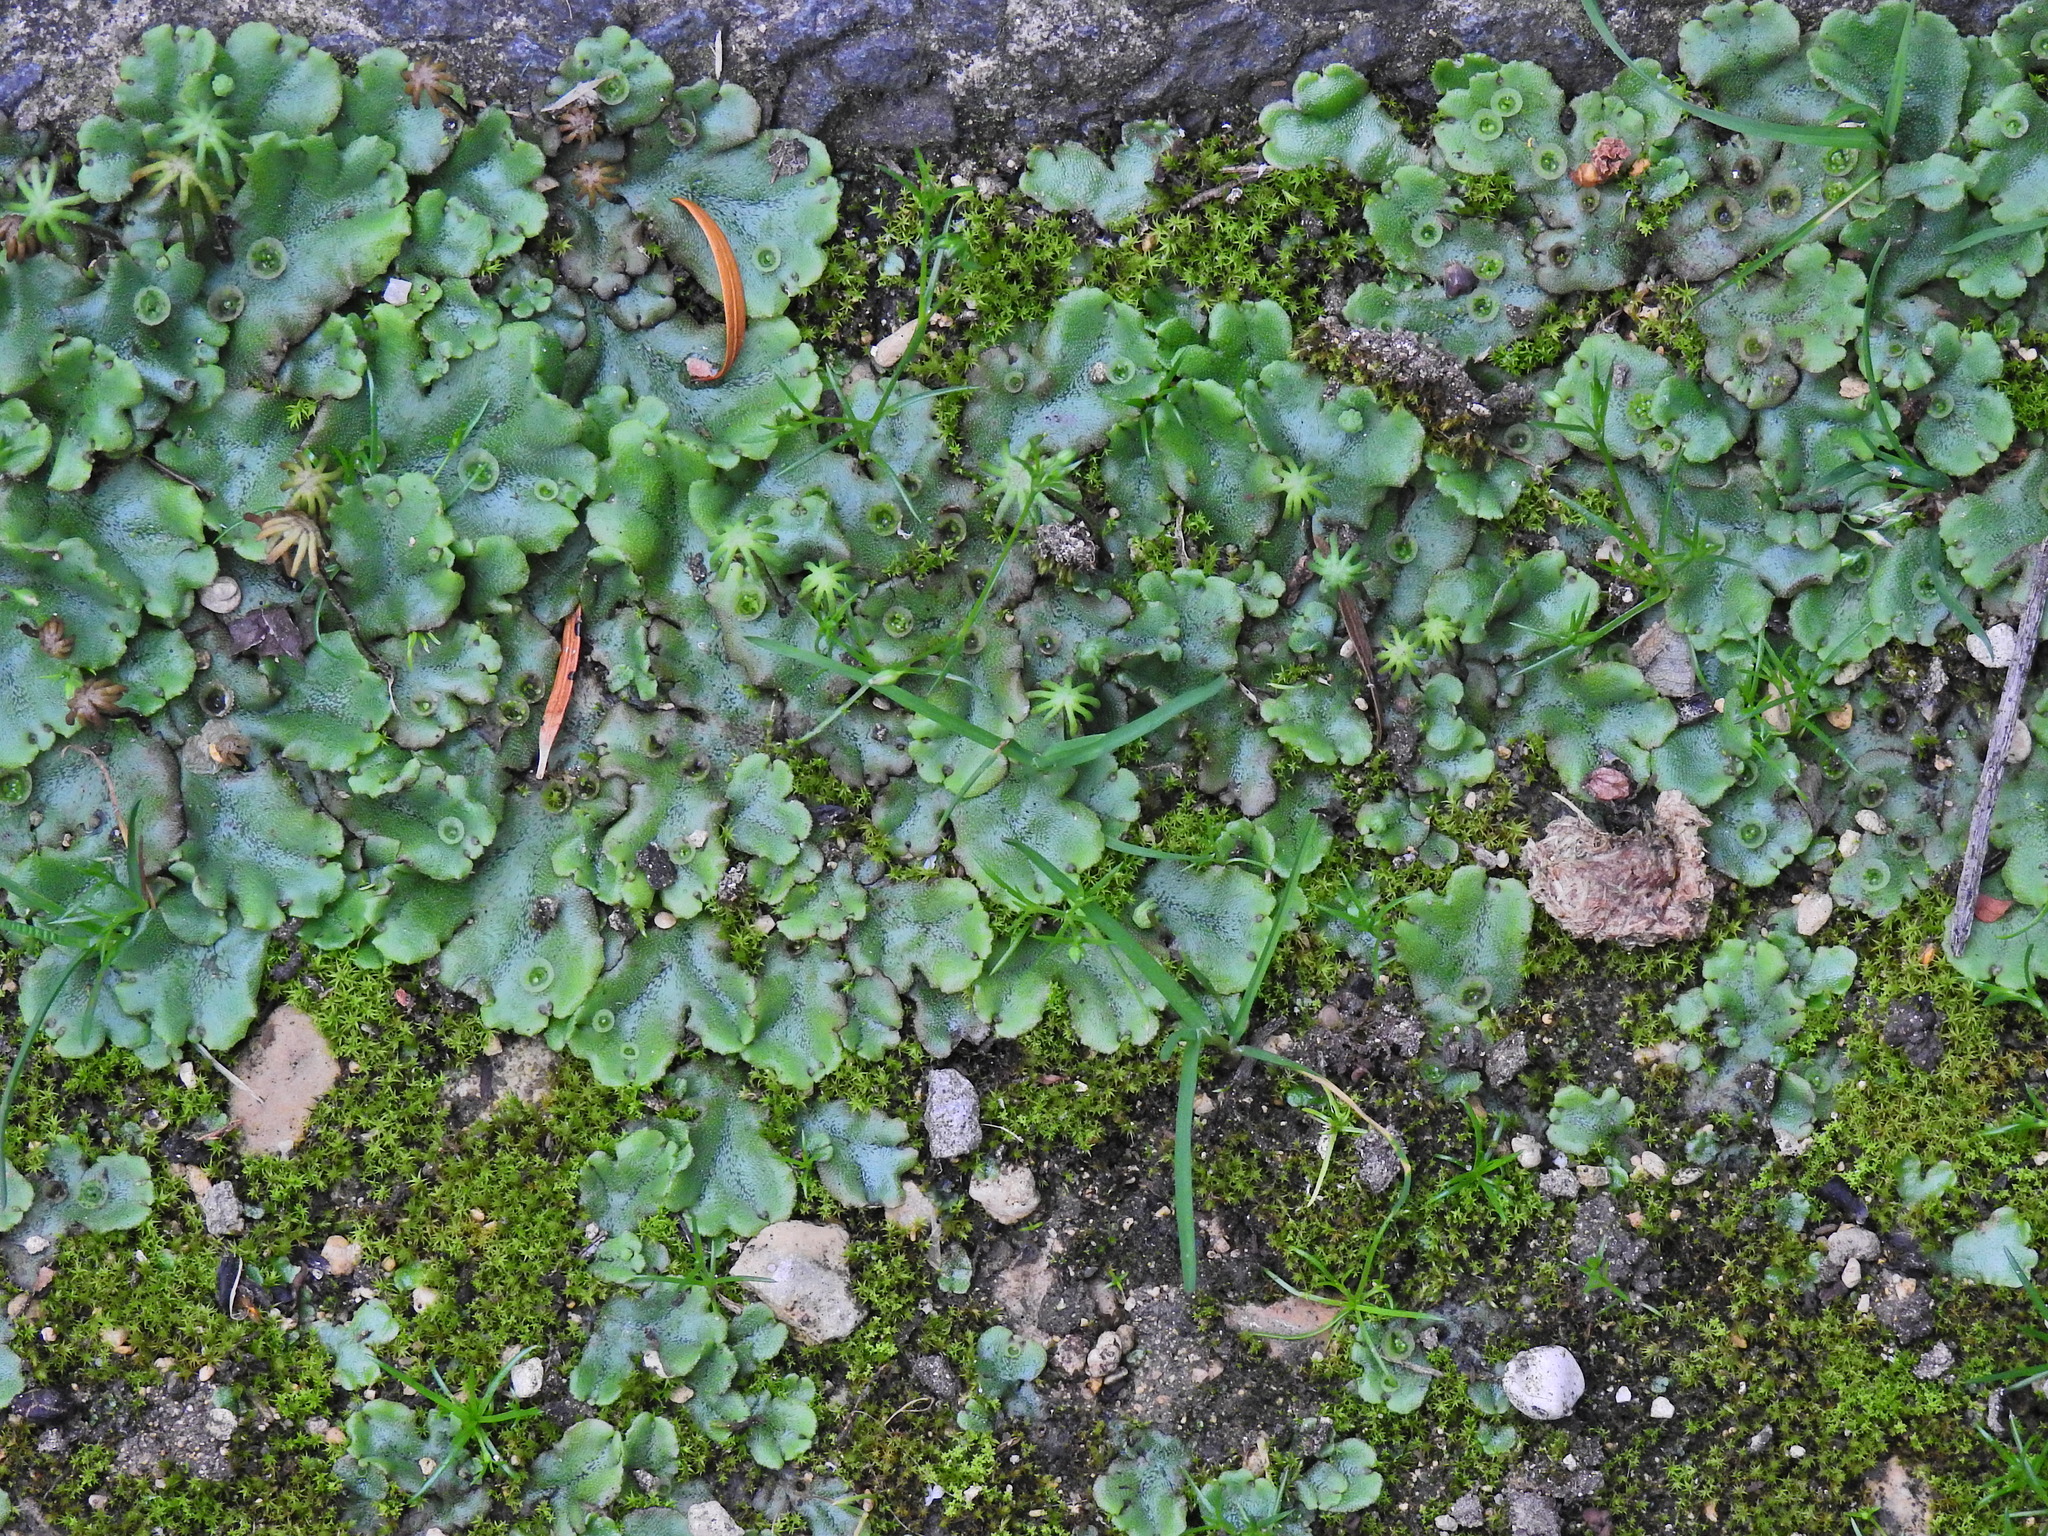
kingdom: Plantae
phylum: Marchantiophyta
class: Marchantiopsida
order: Marchantiales
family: Marchantiaceae
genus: Marchantia
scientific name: Marchantia polymorpha
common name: Common liverwort
